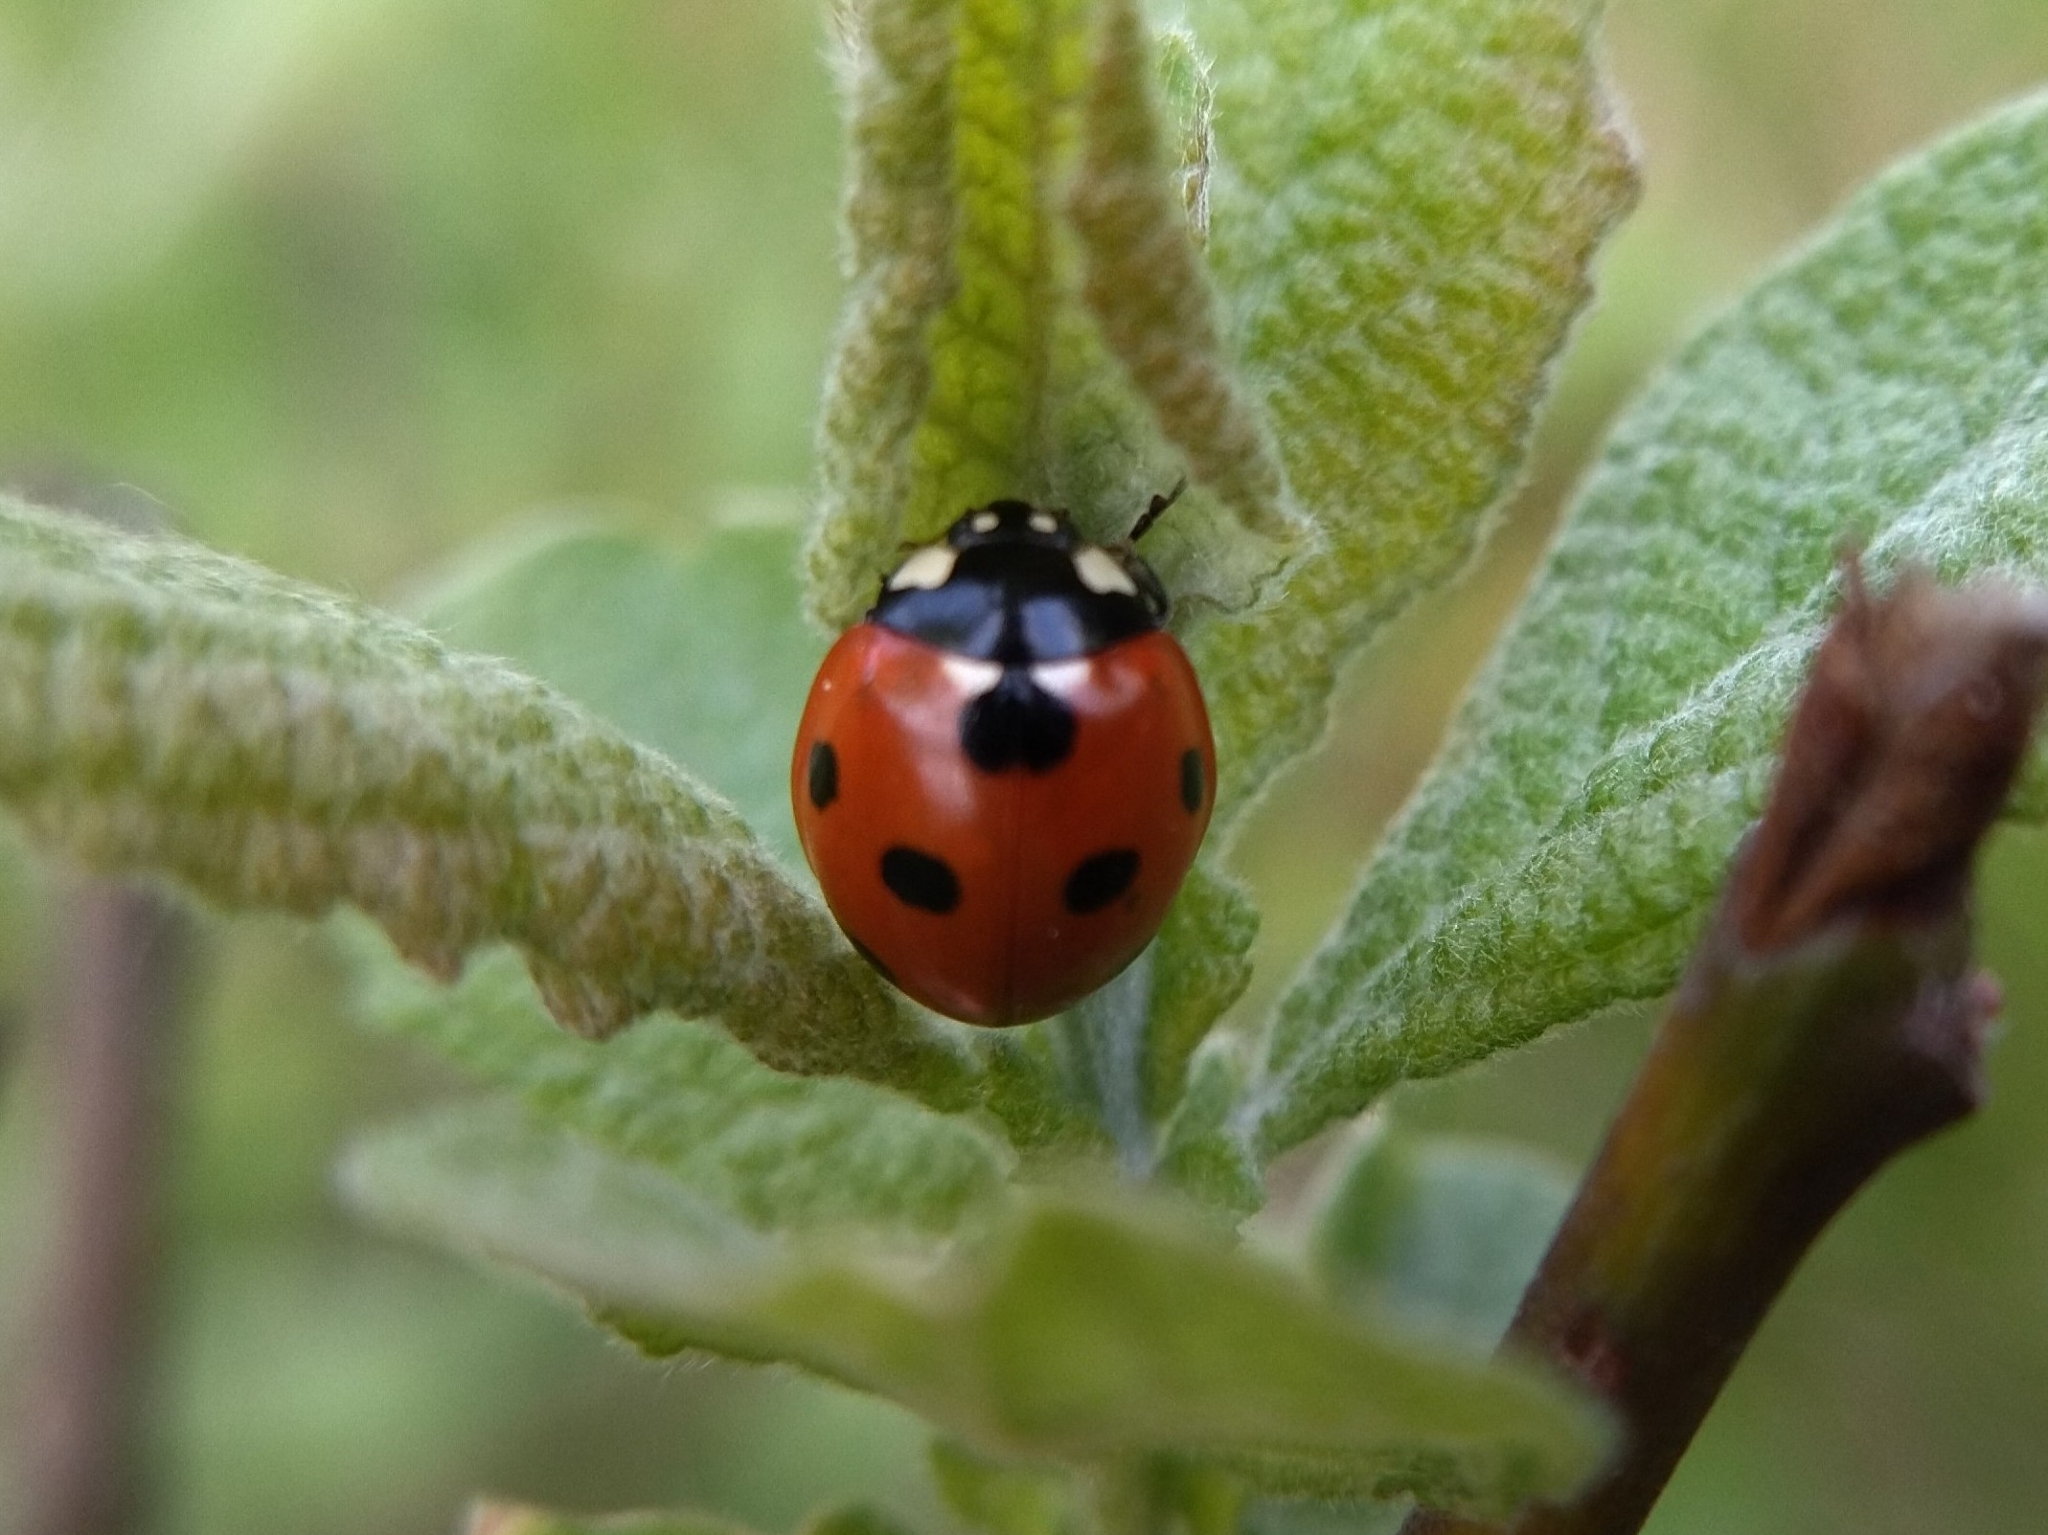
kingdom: Animalia
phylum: Arthropoda
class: Insecta
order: Coleoptera
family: Coccinellidae
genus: Coccinella
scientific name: Coccinella septempunctata
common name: Sevenspotted lady beetle
